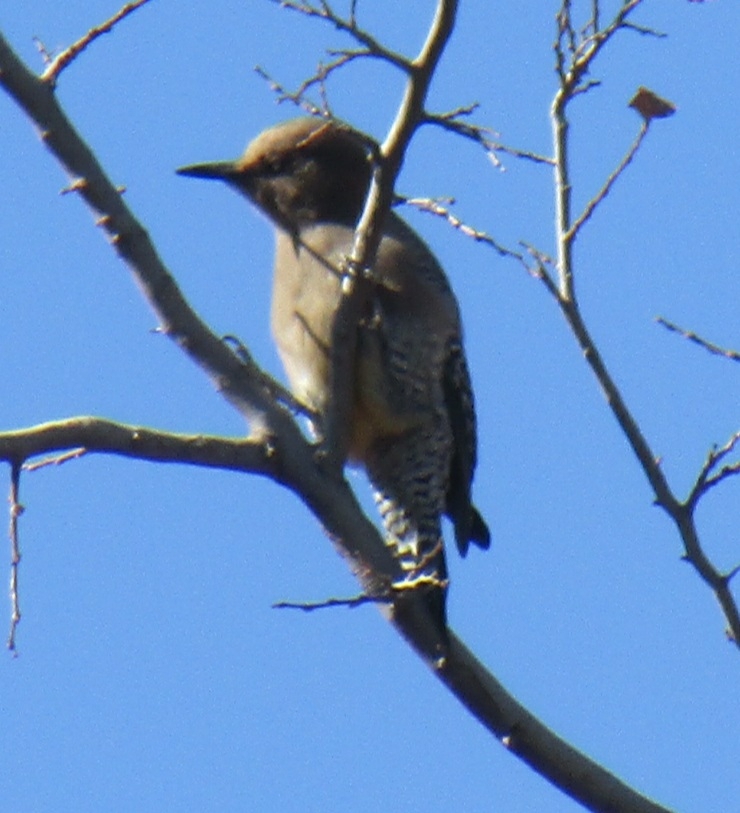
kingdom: Animalia
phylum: Chordata
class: Aves
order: Piciformes
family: Picidae
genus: Melanerpes
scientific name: Melanerpes uropygialis
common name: Gila woodpecker
